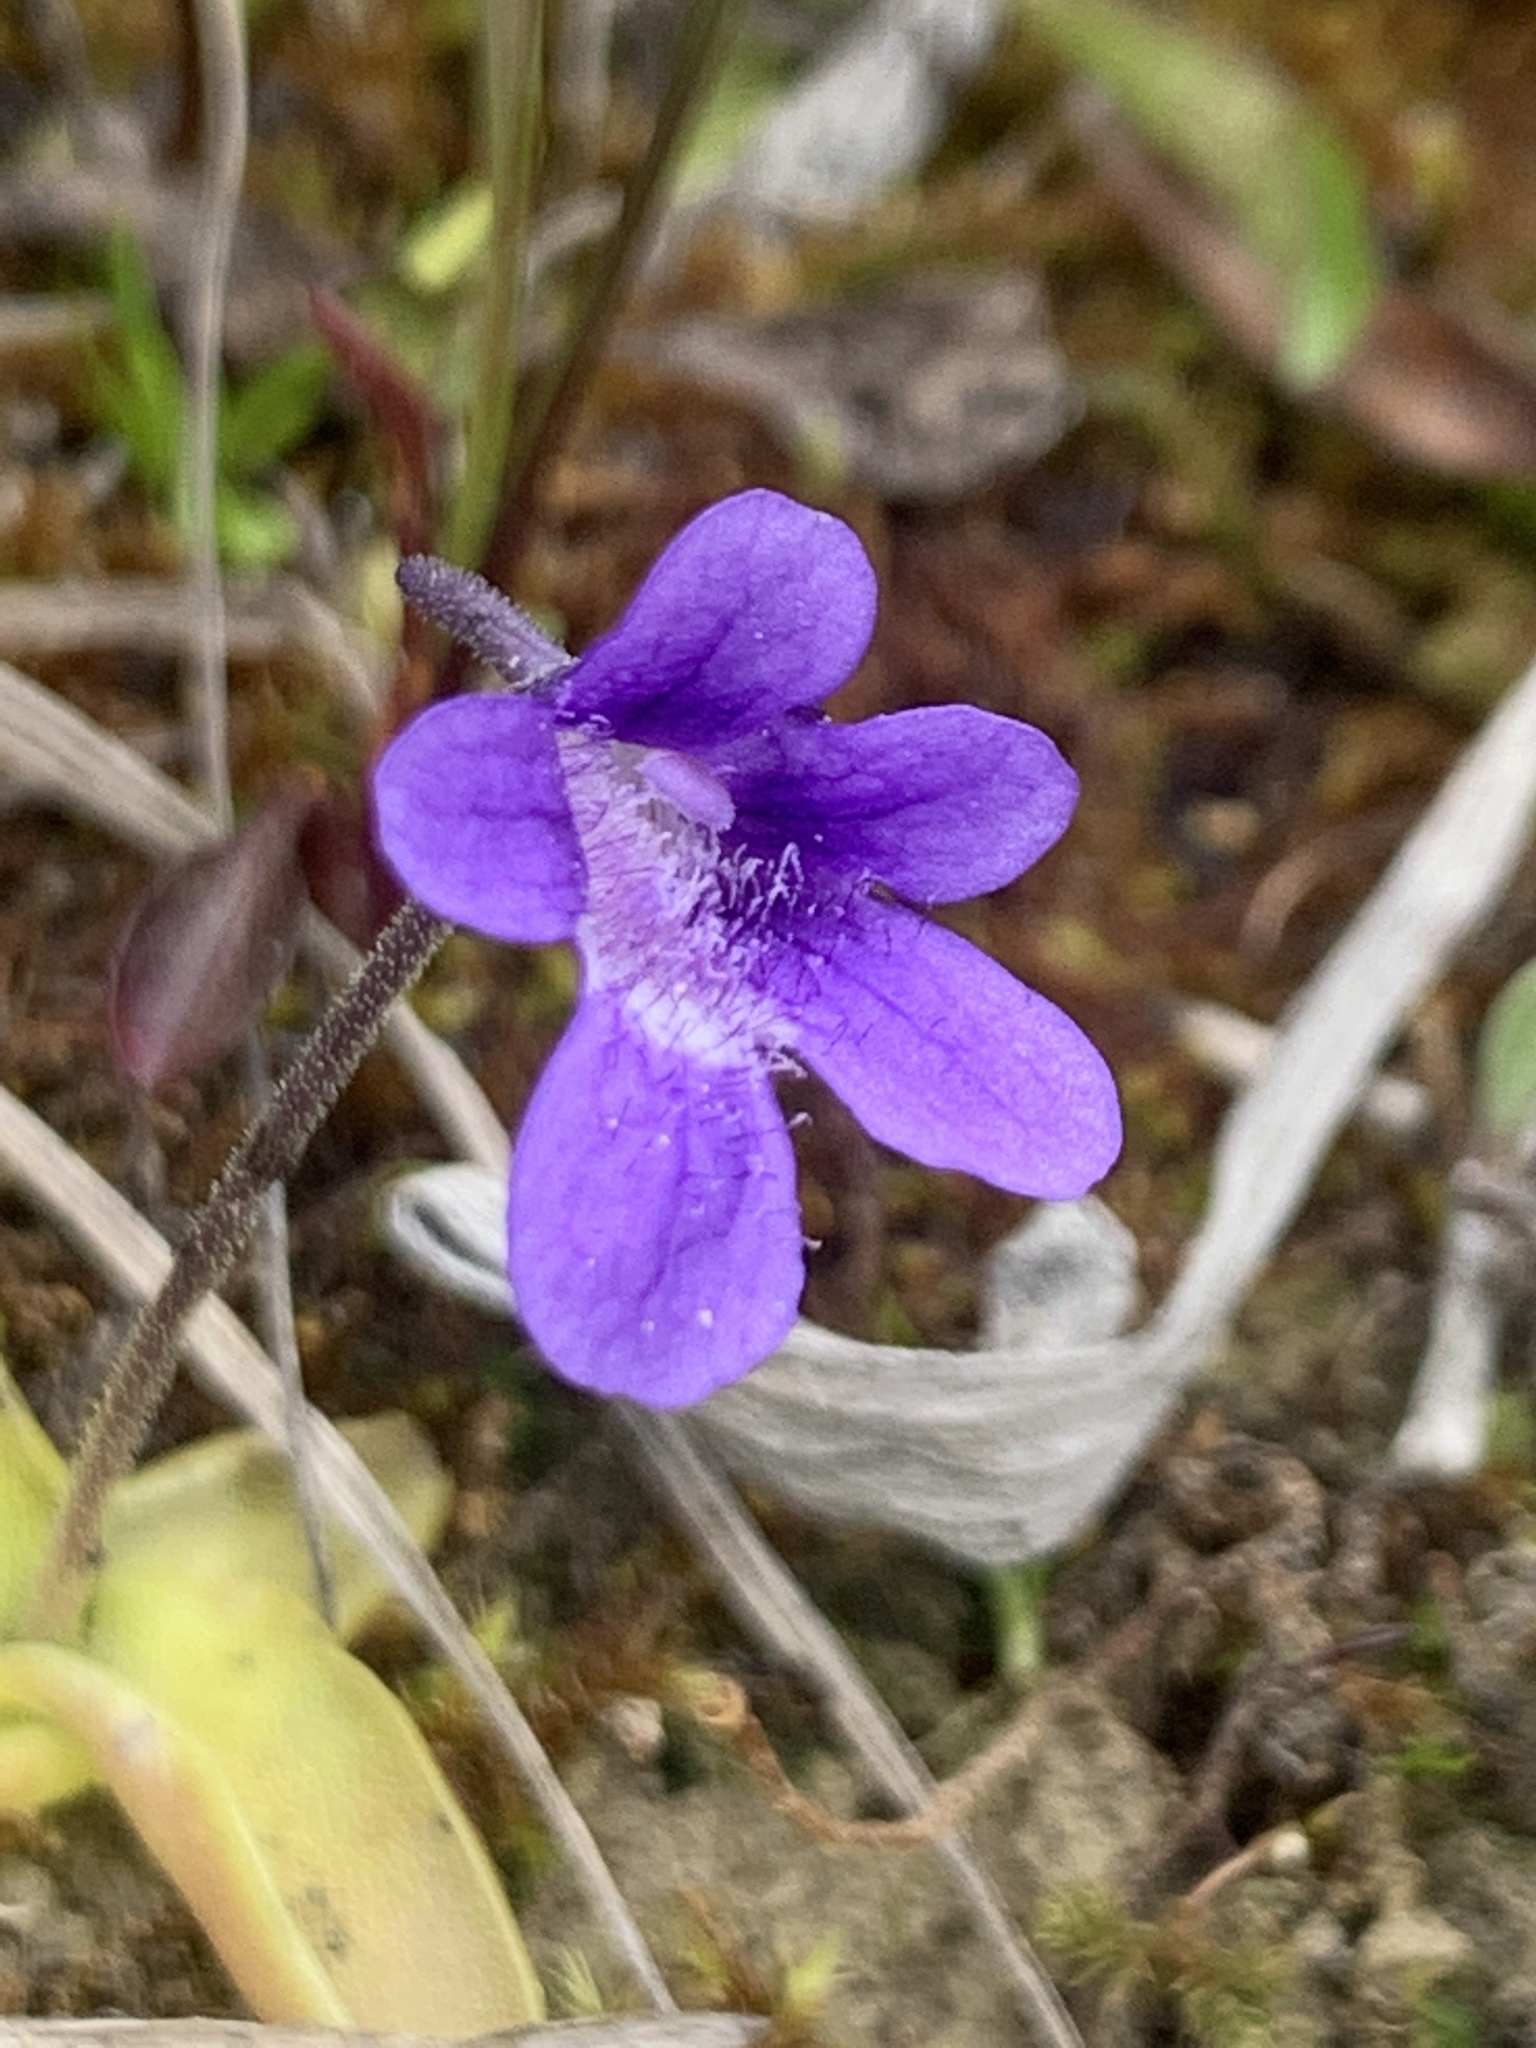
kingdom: Plantae
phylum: Tracheophyta
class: Magnoliopsida
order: Lamiales
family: Lentibulariaceae
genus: Pinguicula
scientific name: Pinguicula vulgaris
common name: Common butterwort
